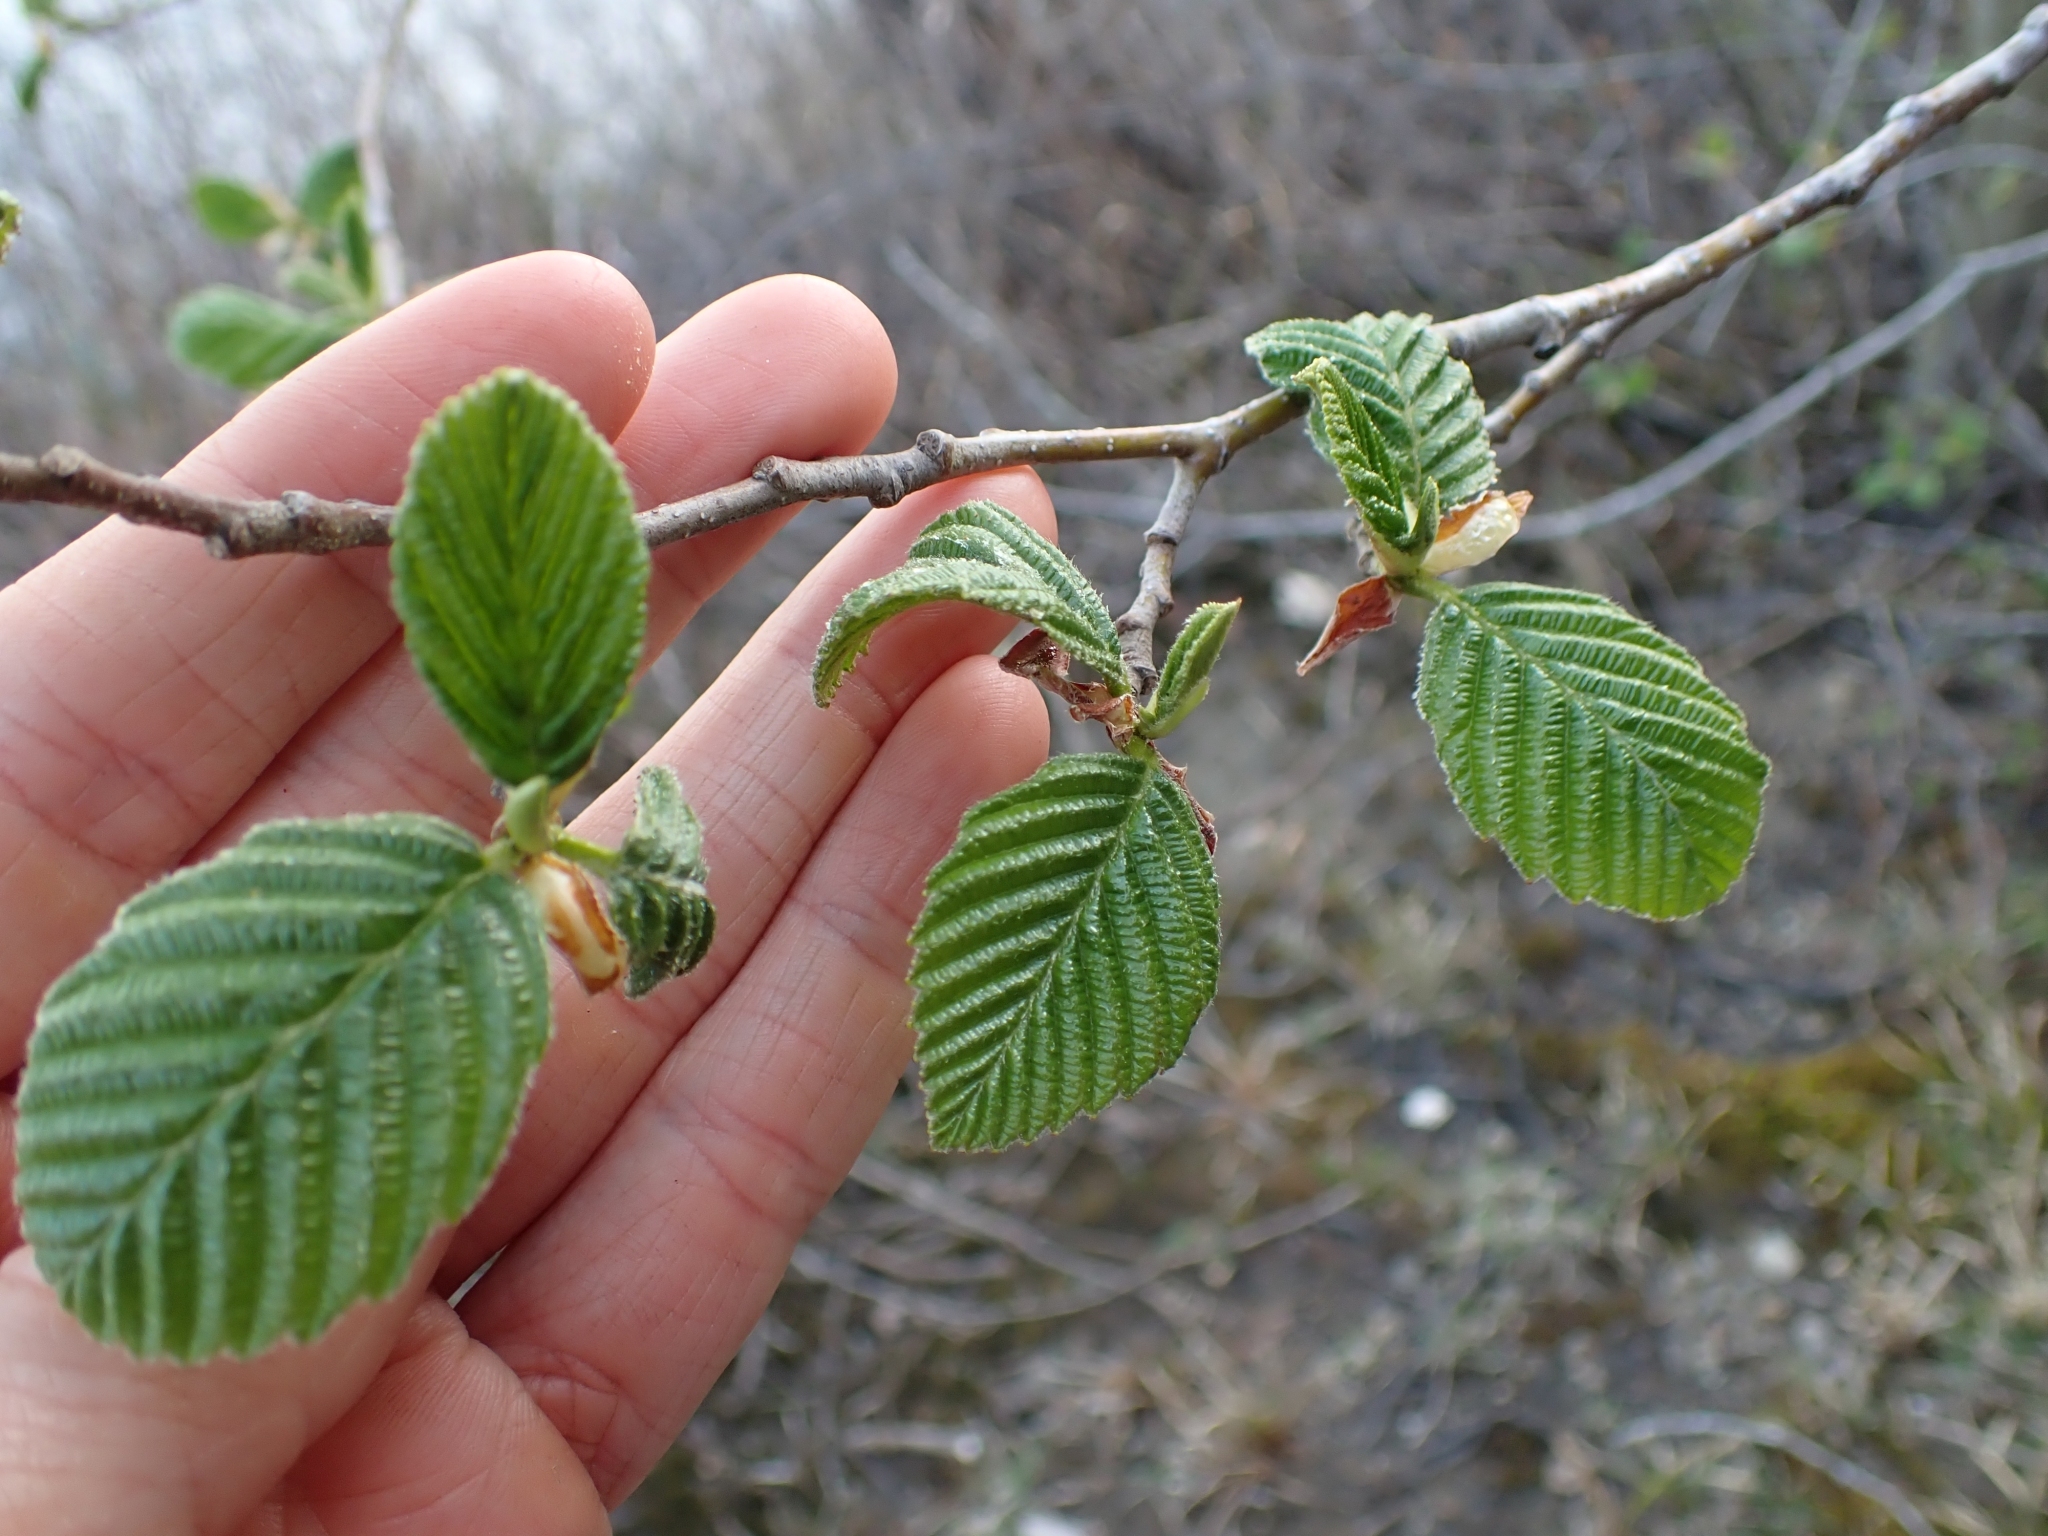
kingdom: Plantae
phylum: Tracheophyta
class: Magnoliopsida
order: Fagales
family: Betulaceae
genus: Alnus
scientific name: Alnus rubra
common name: Red alder
